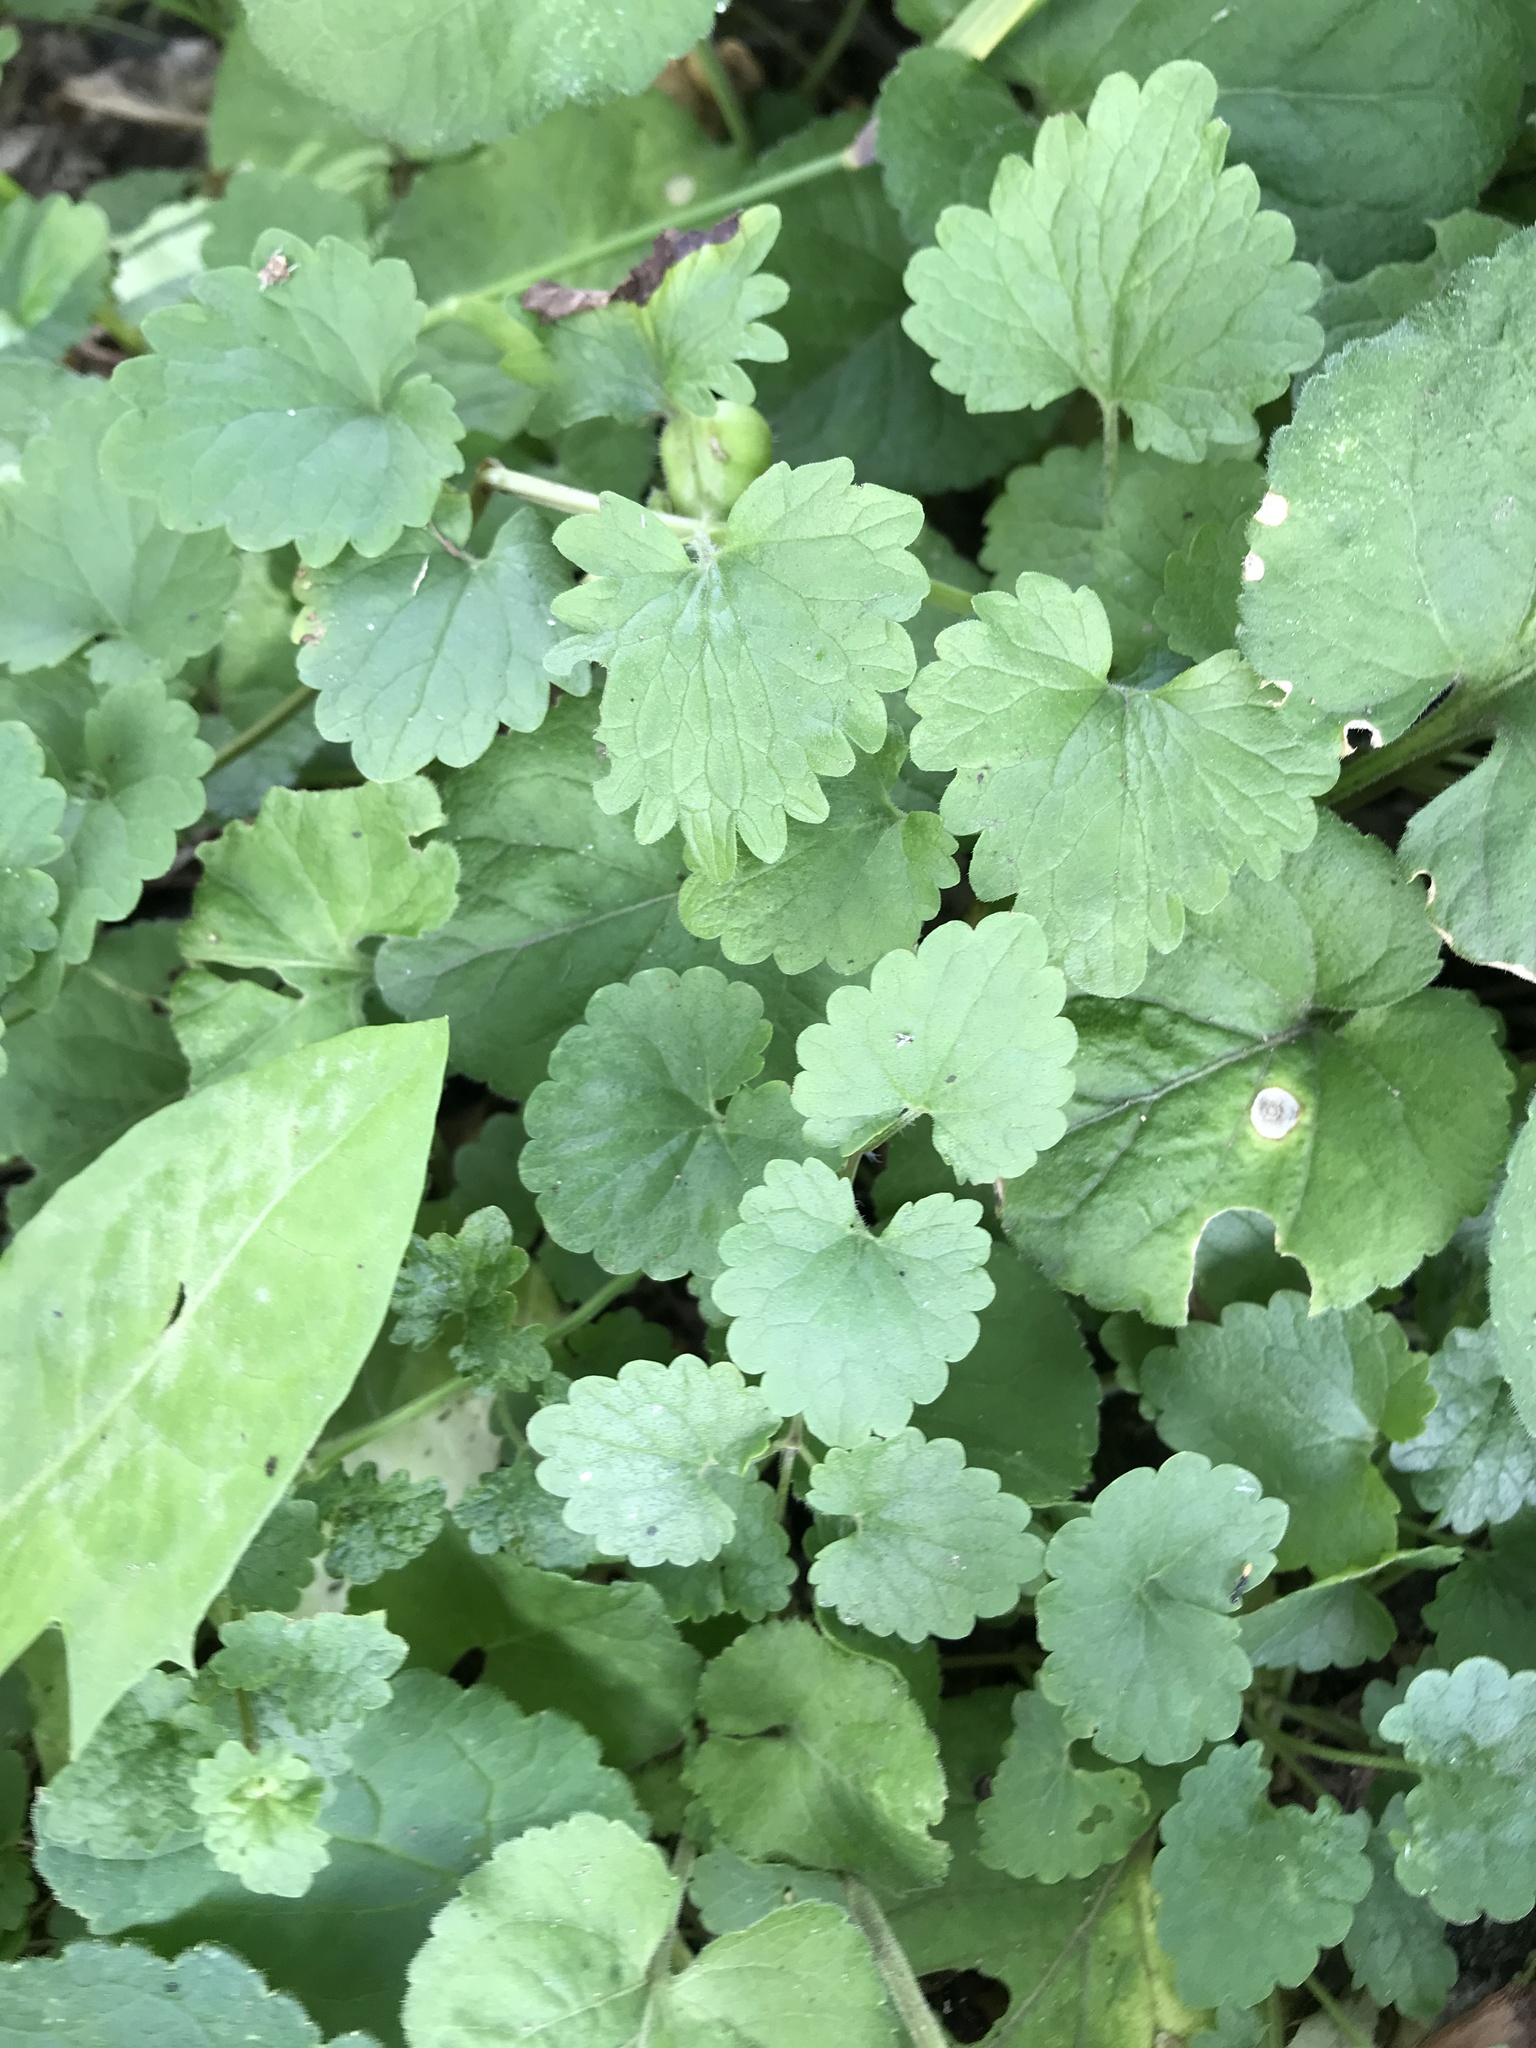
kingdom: Plantae
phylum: Tracheophyta
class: Magnoliopsida
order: Lamiales
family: Lamiaceae
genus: Glechoma
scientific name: Glechoma hederacea
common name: Ground ivy
